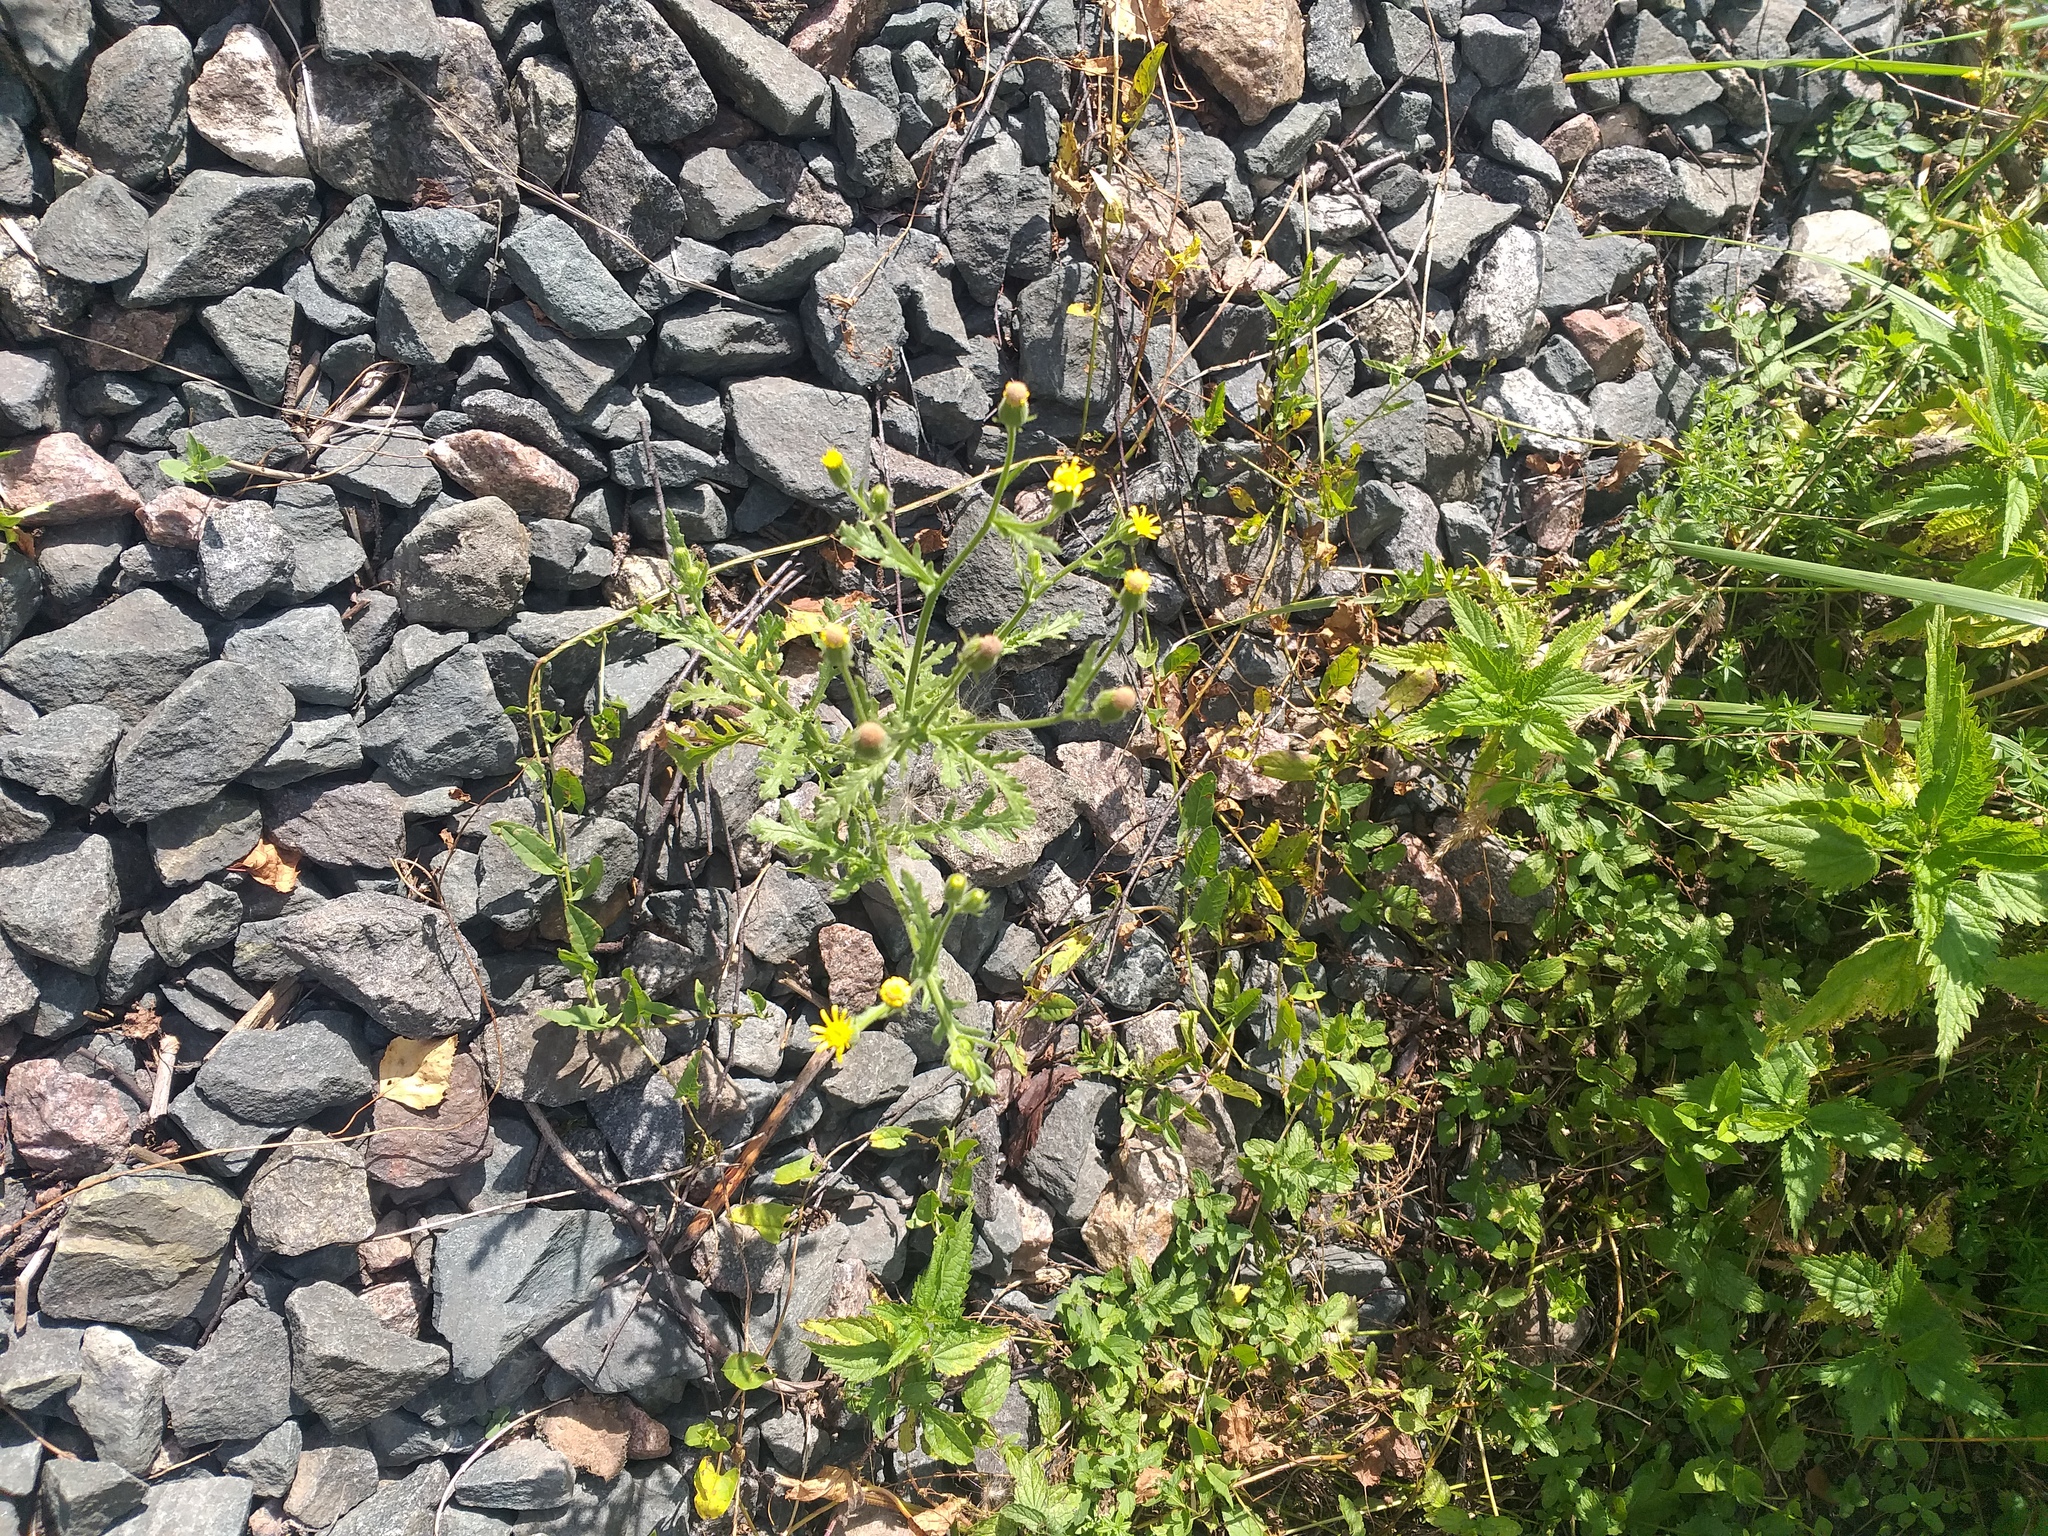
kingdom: Plantae
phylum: Tracheophyta
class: Magnoliopsida
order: Asterales
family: Asteraceae
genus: Senecio
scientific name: Senecio viscosus
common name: Sticky groundsel
